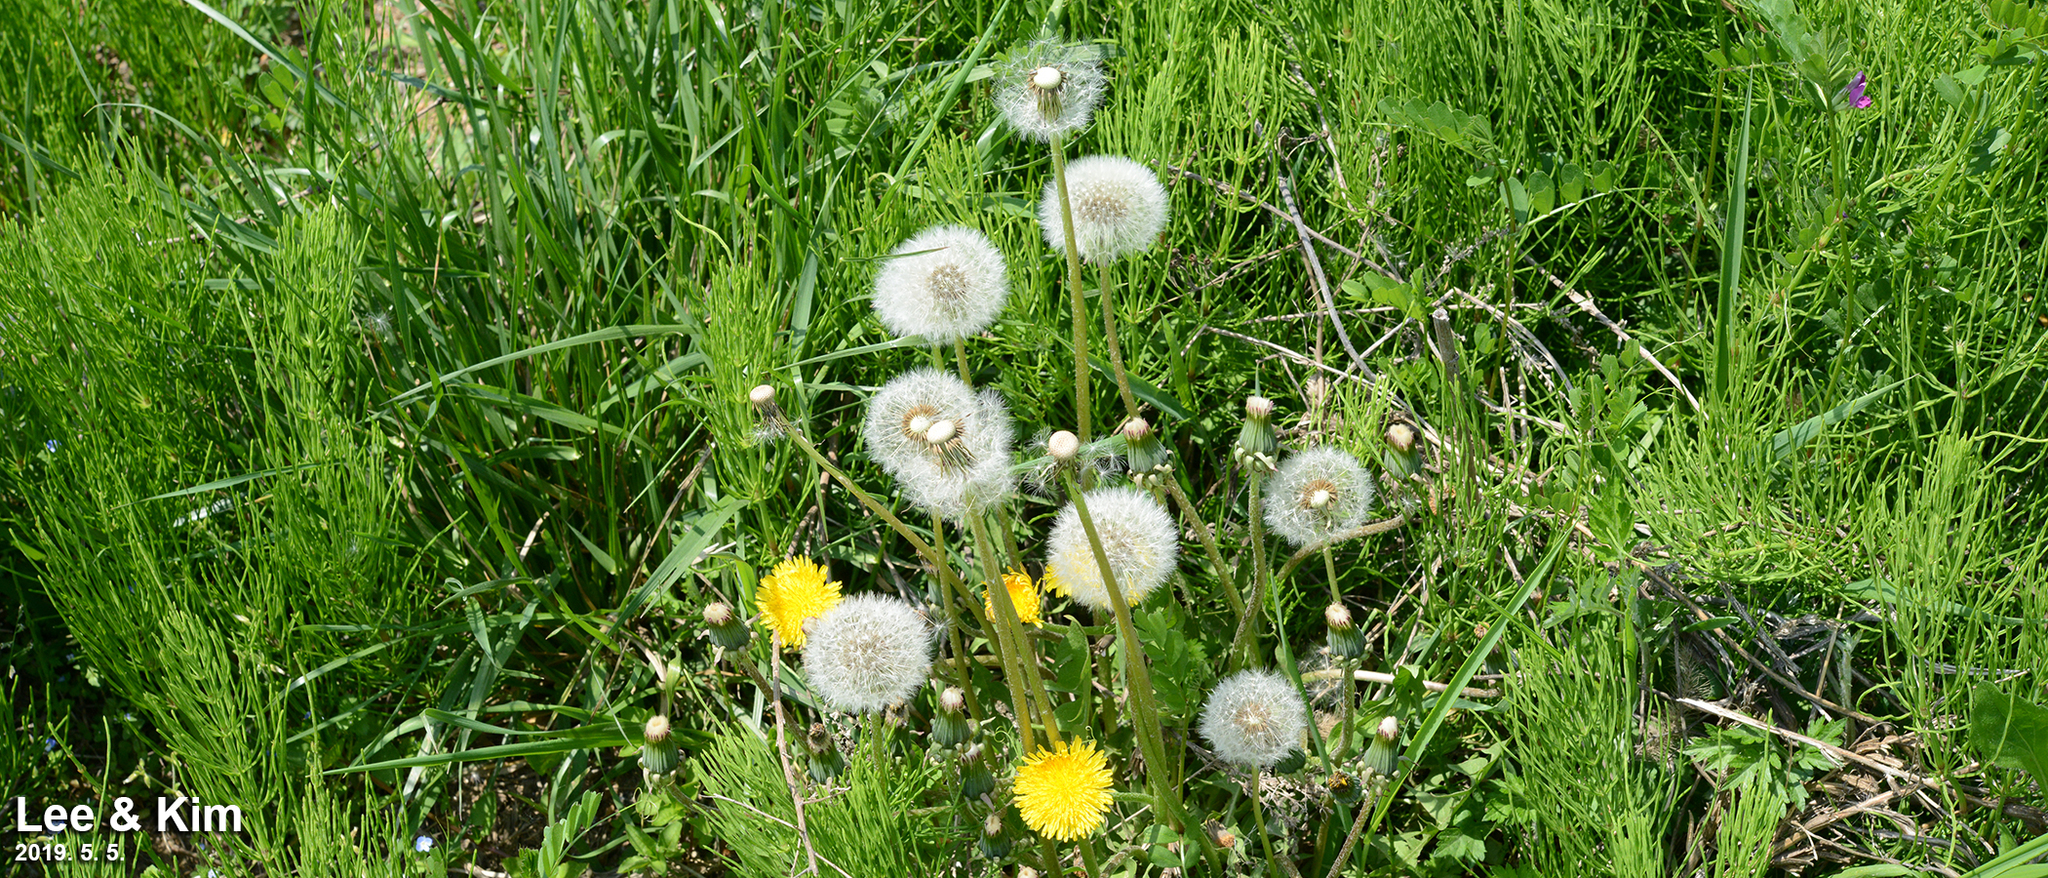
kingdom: Plantae
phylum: Tracheophyta
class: Magnoliopsida
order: Asterales
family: Asteraceae
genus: Taraxacum
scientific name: Taraxacum officinale
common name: Common dandelion
